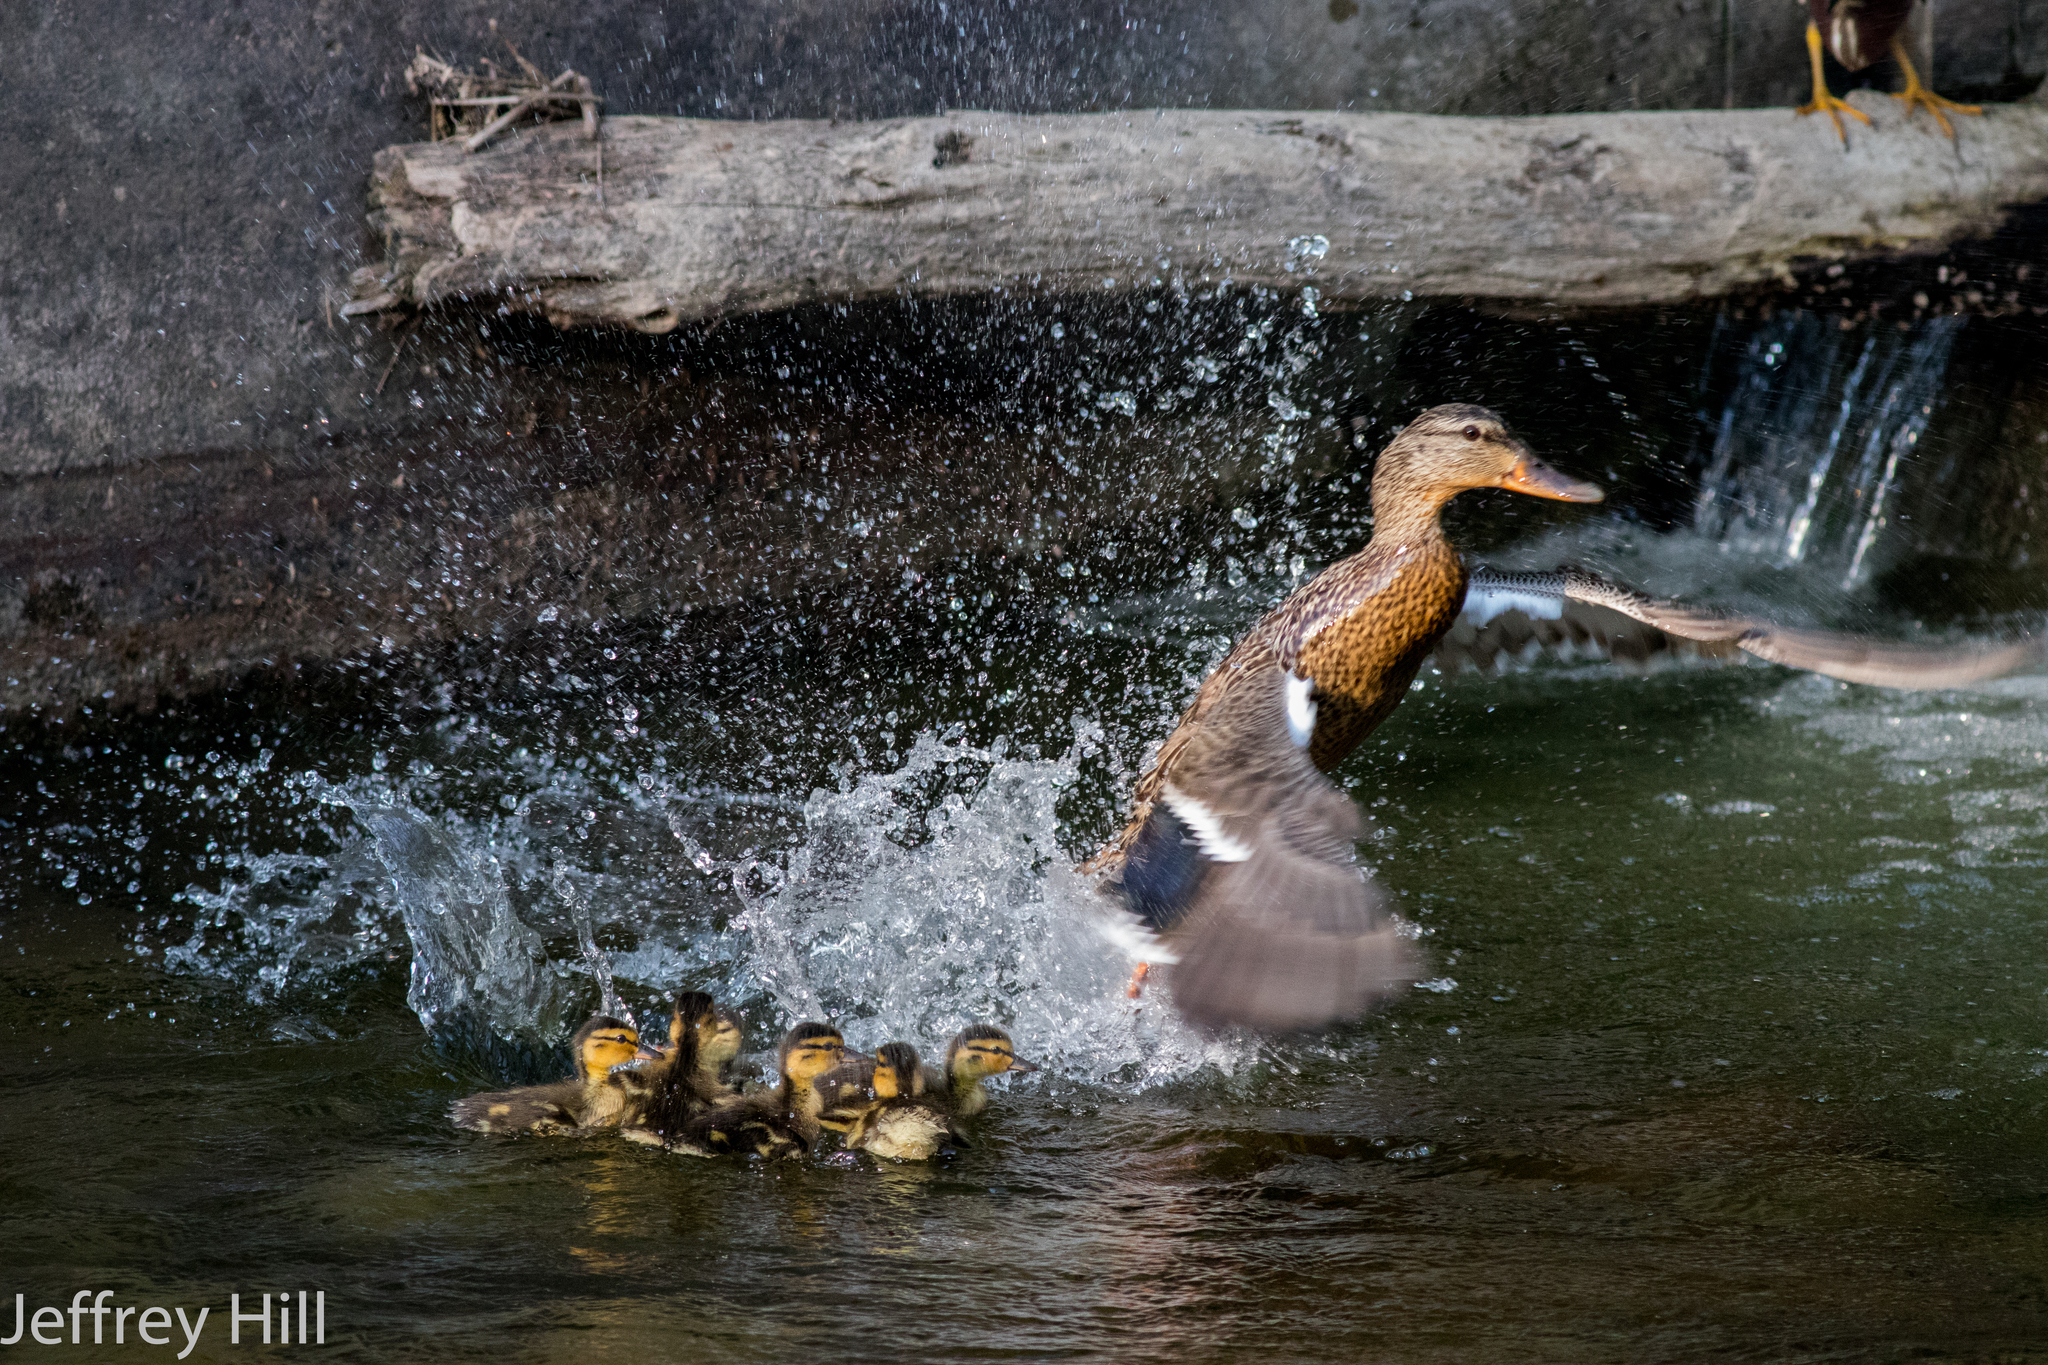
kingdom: Animalia
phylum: Chordata
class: Aves
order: Anseriformes
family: Anatidae
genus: Anas
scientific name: Anas platyrhynchos
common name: Mallard
